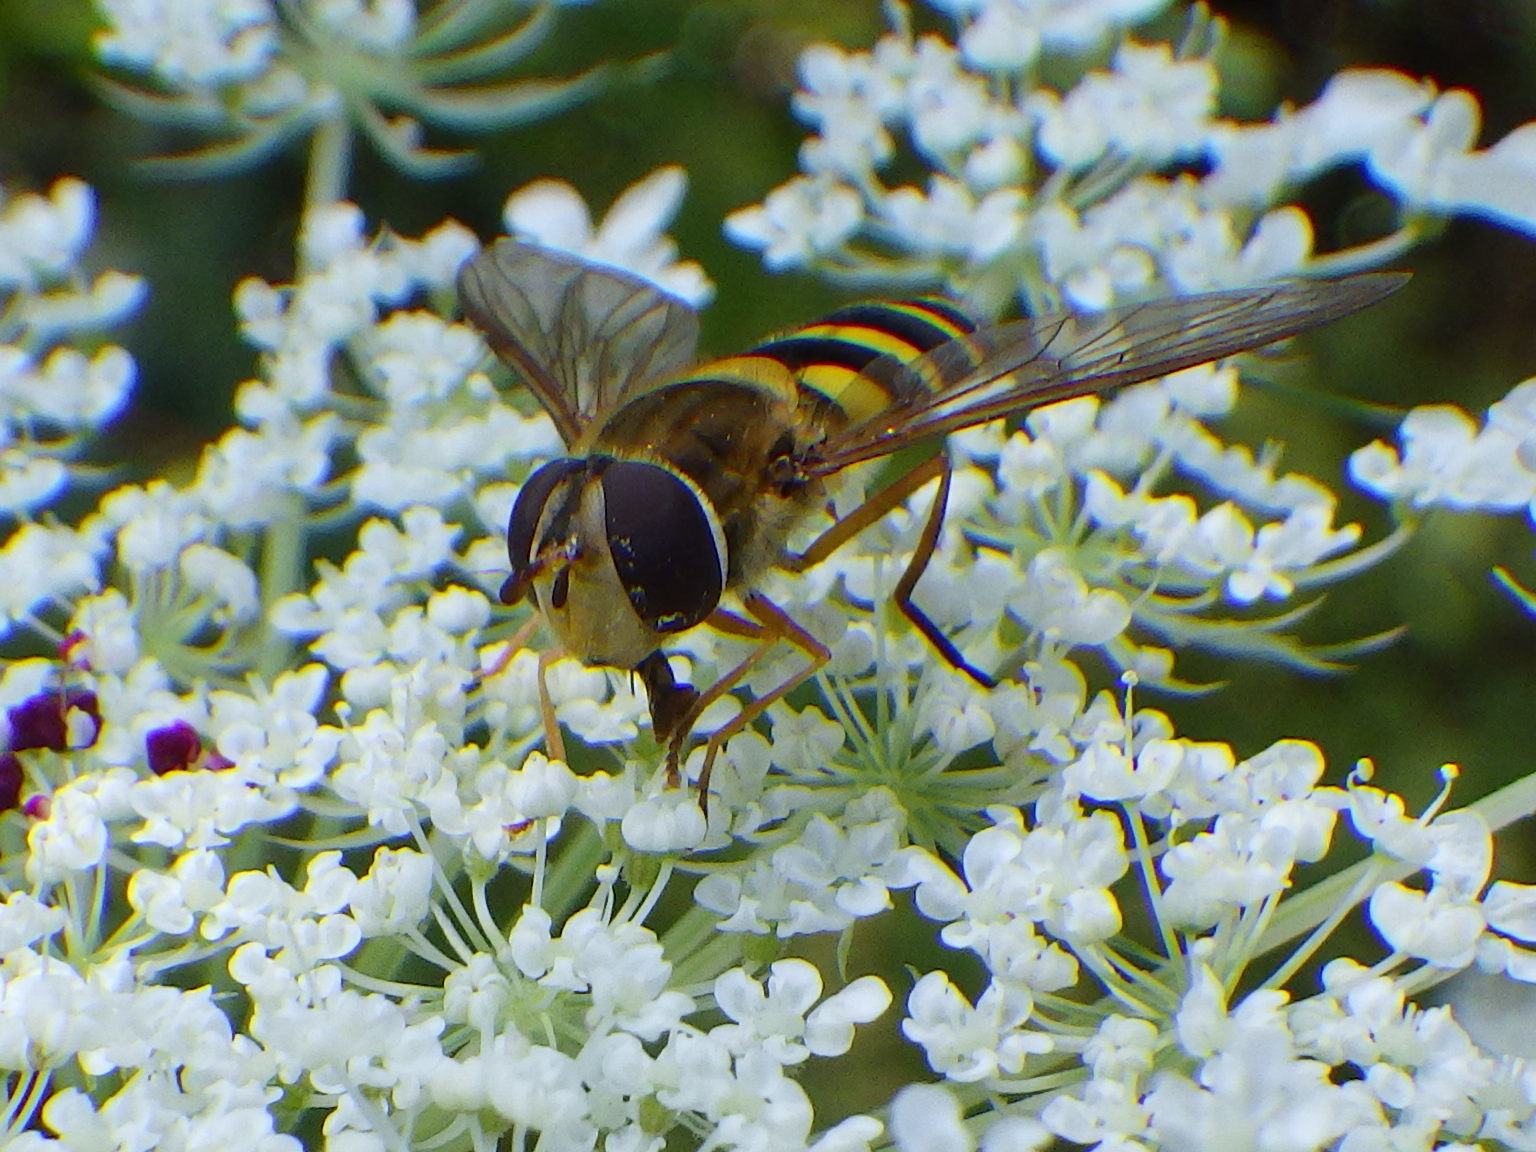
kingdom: Animalia
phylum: Arthropoda
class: Insecta
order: Diptera
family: Syrphidae
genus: Syrphus
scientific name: Syrphus ribesii
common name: Common flower fly
